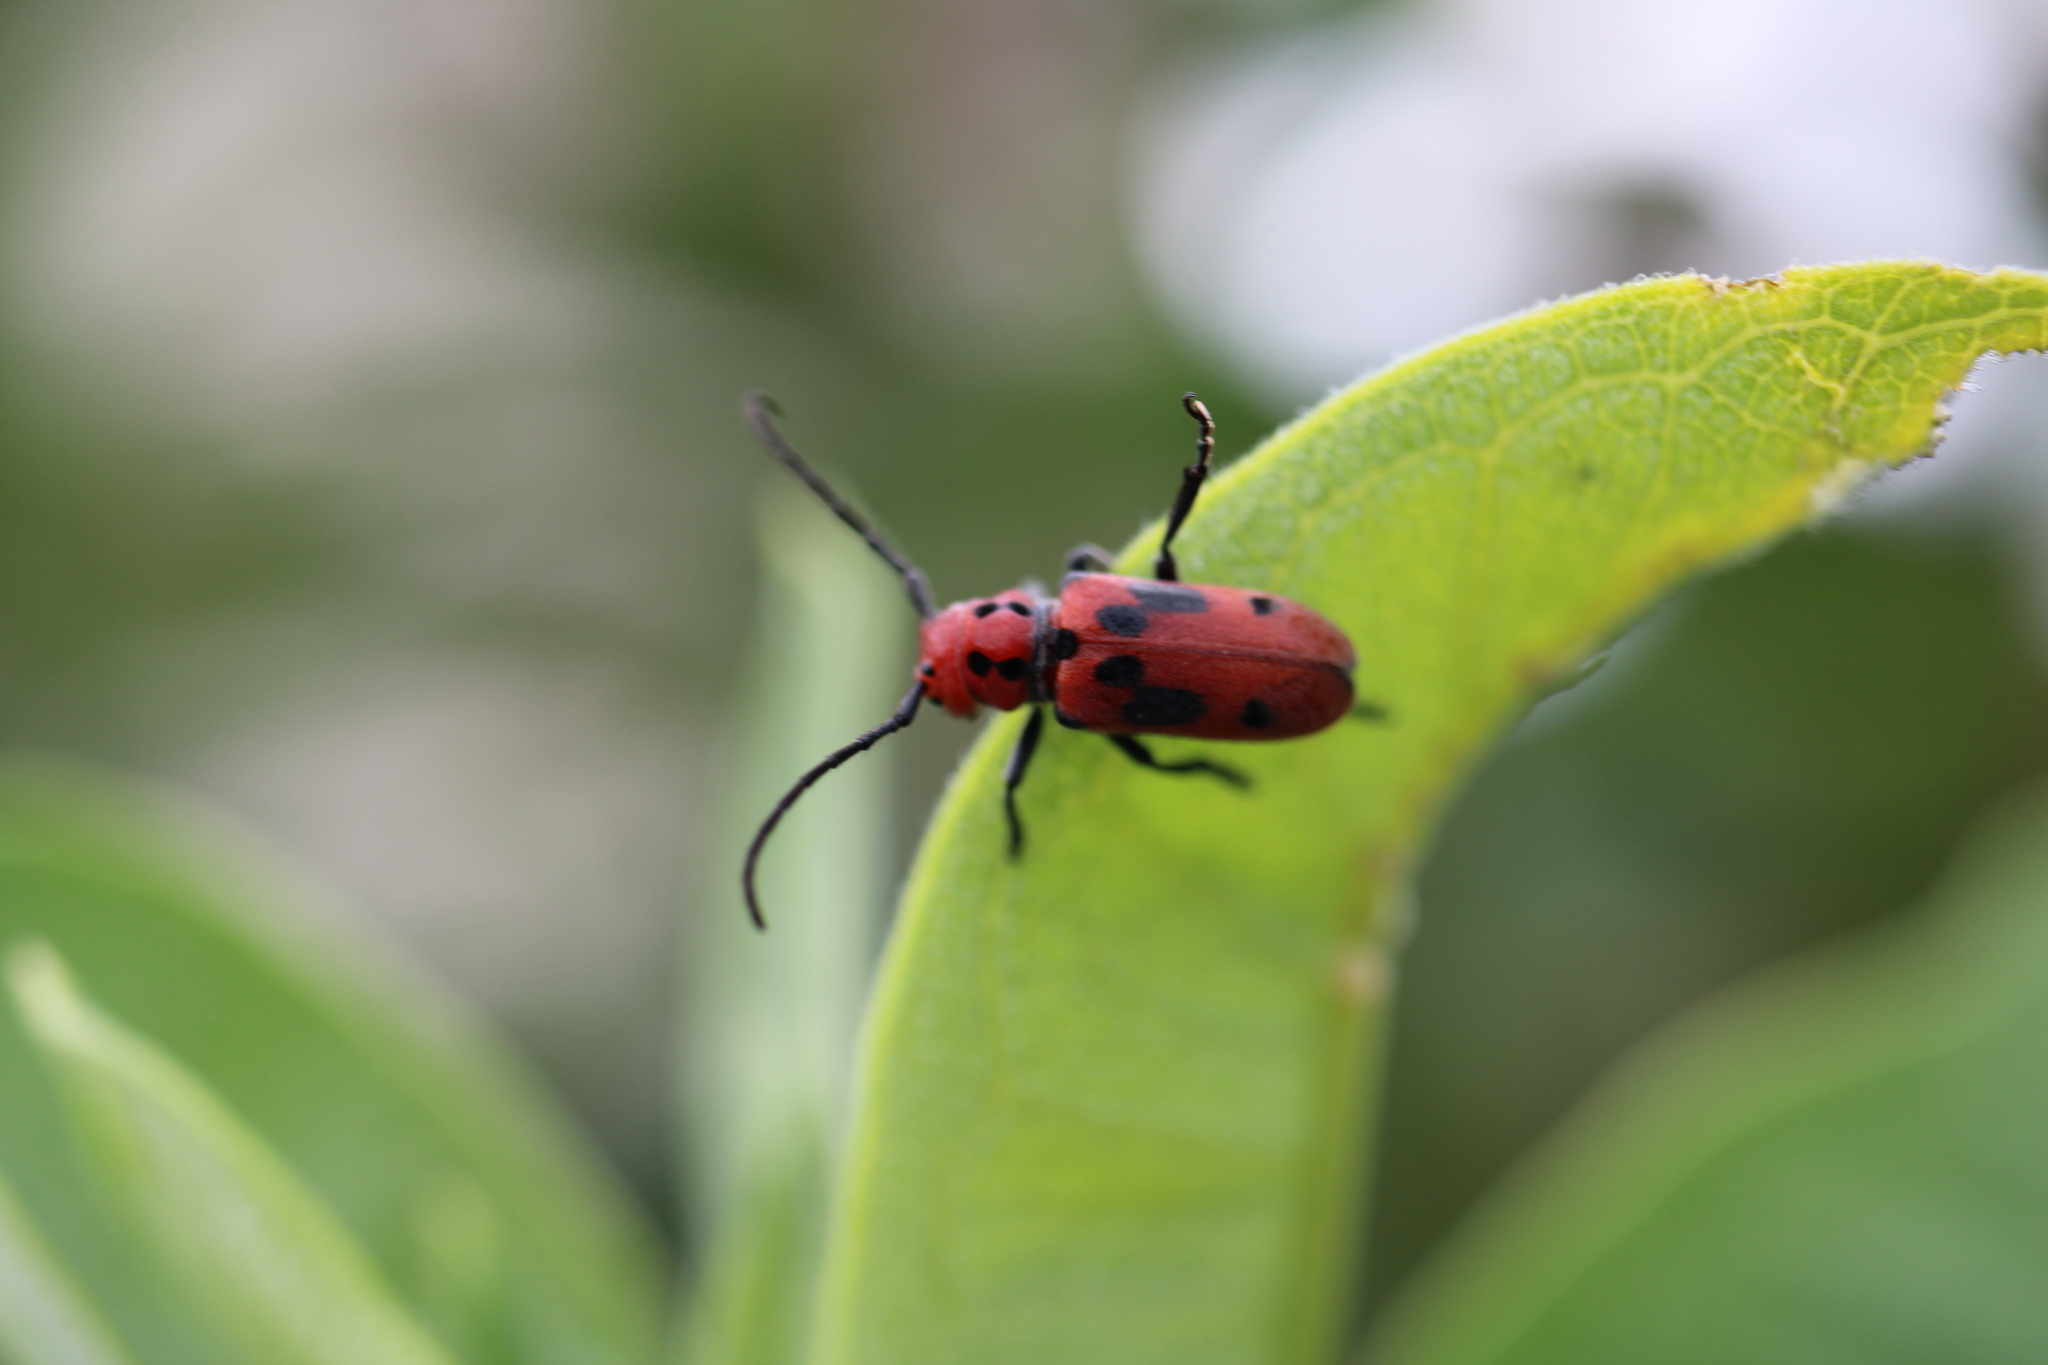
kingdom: Animalia
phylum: Arthropoda
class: Insecta
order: Coleoptera
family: Cerambycidae
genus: Tetraopes
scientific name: Tetraopes tetrophthalmus
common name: Red milkweed beetle
